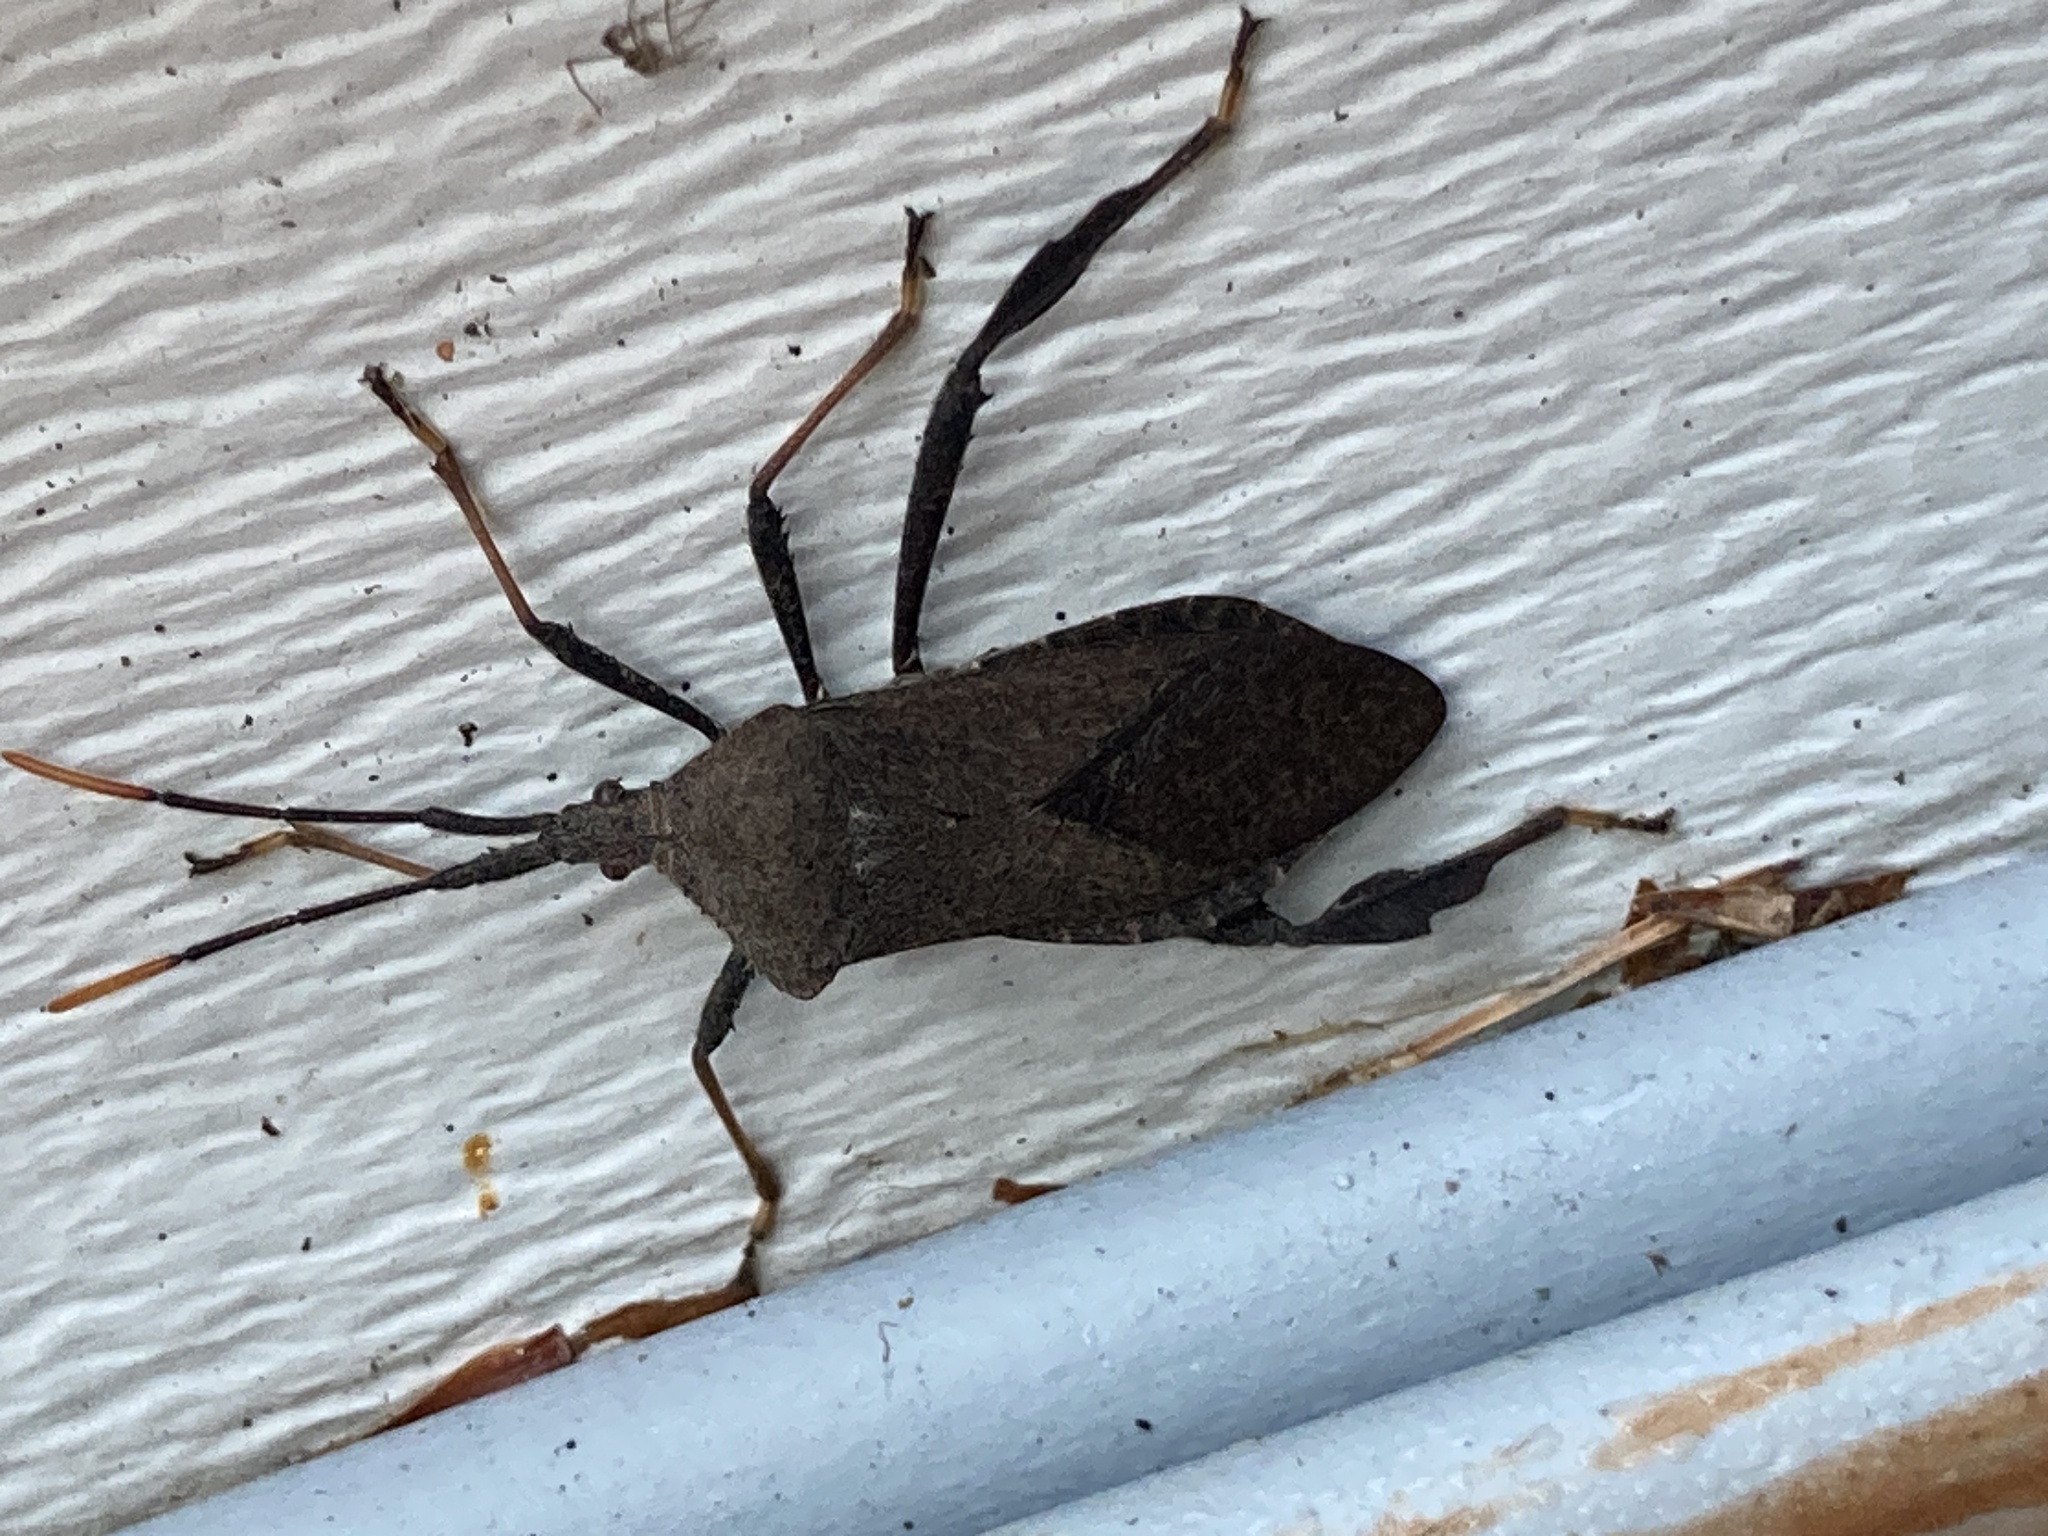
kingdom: Animalia
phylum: Arthropoda
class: Insecta
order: Hemiptera
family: Coreidae
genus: Acanthocephala
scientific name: Acanthocephala terminalis
